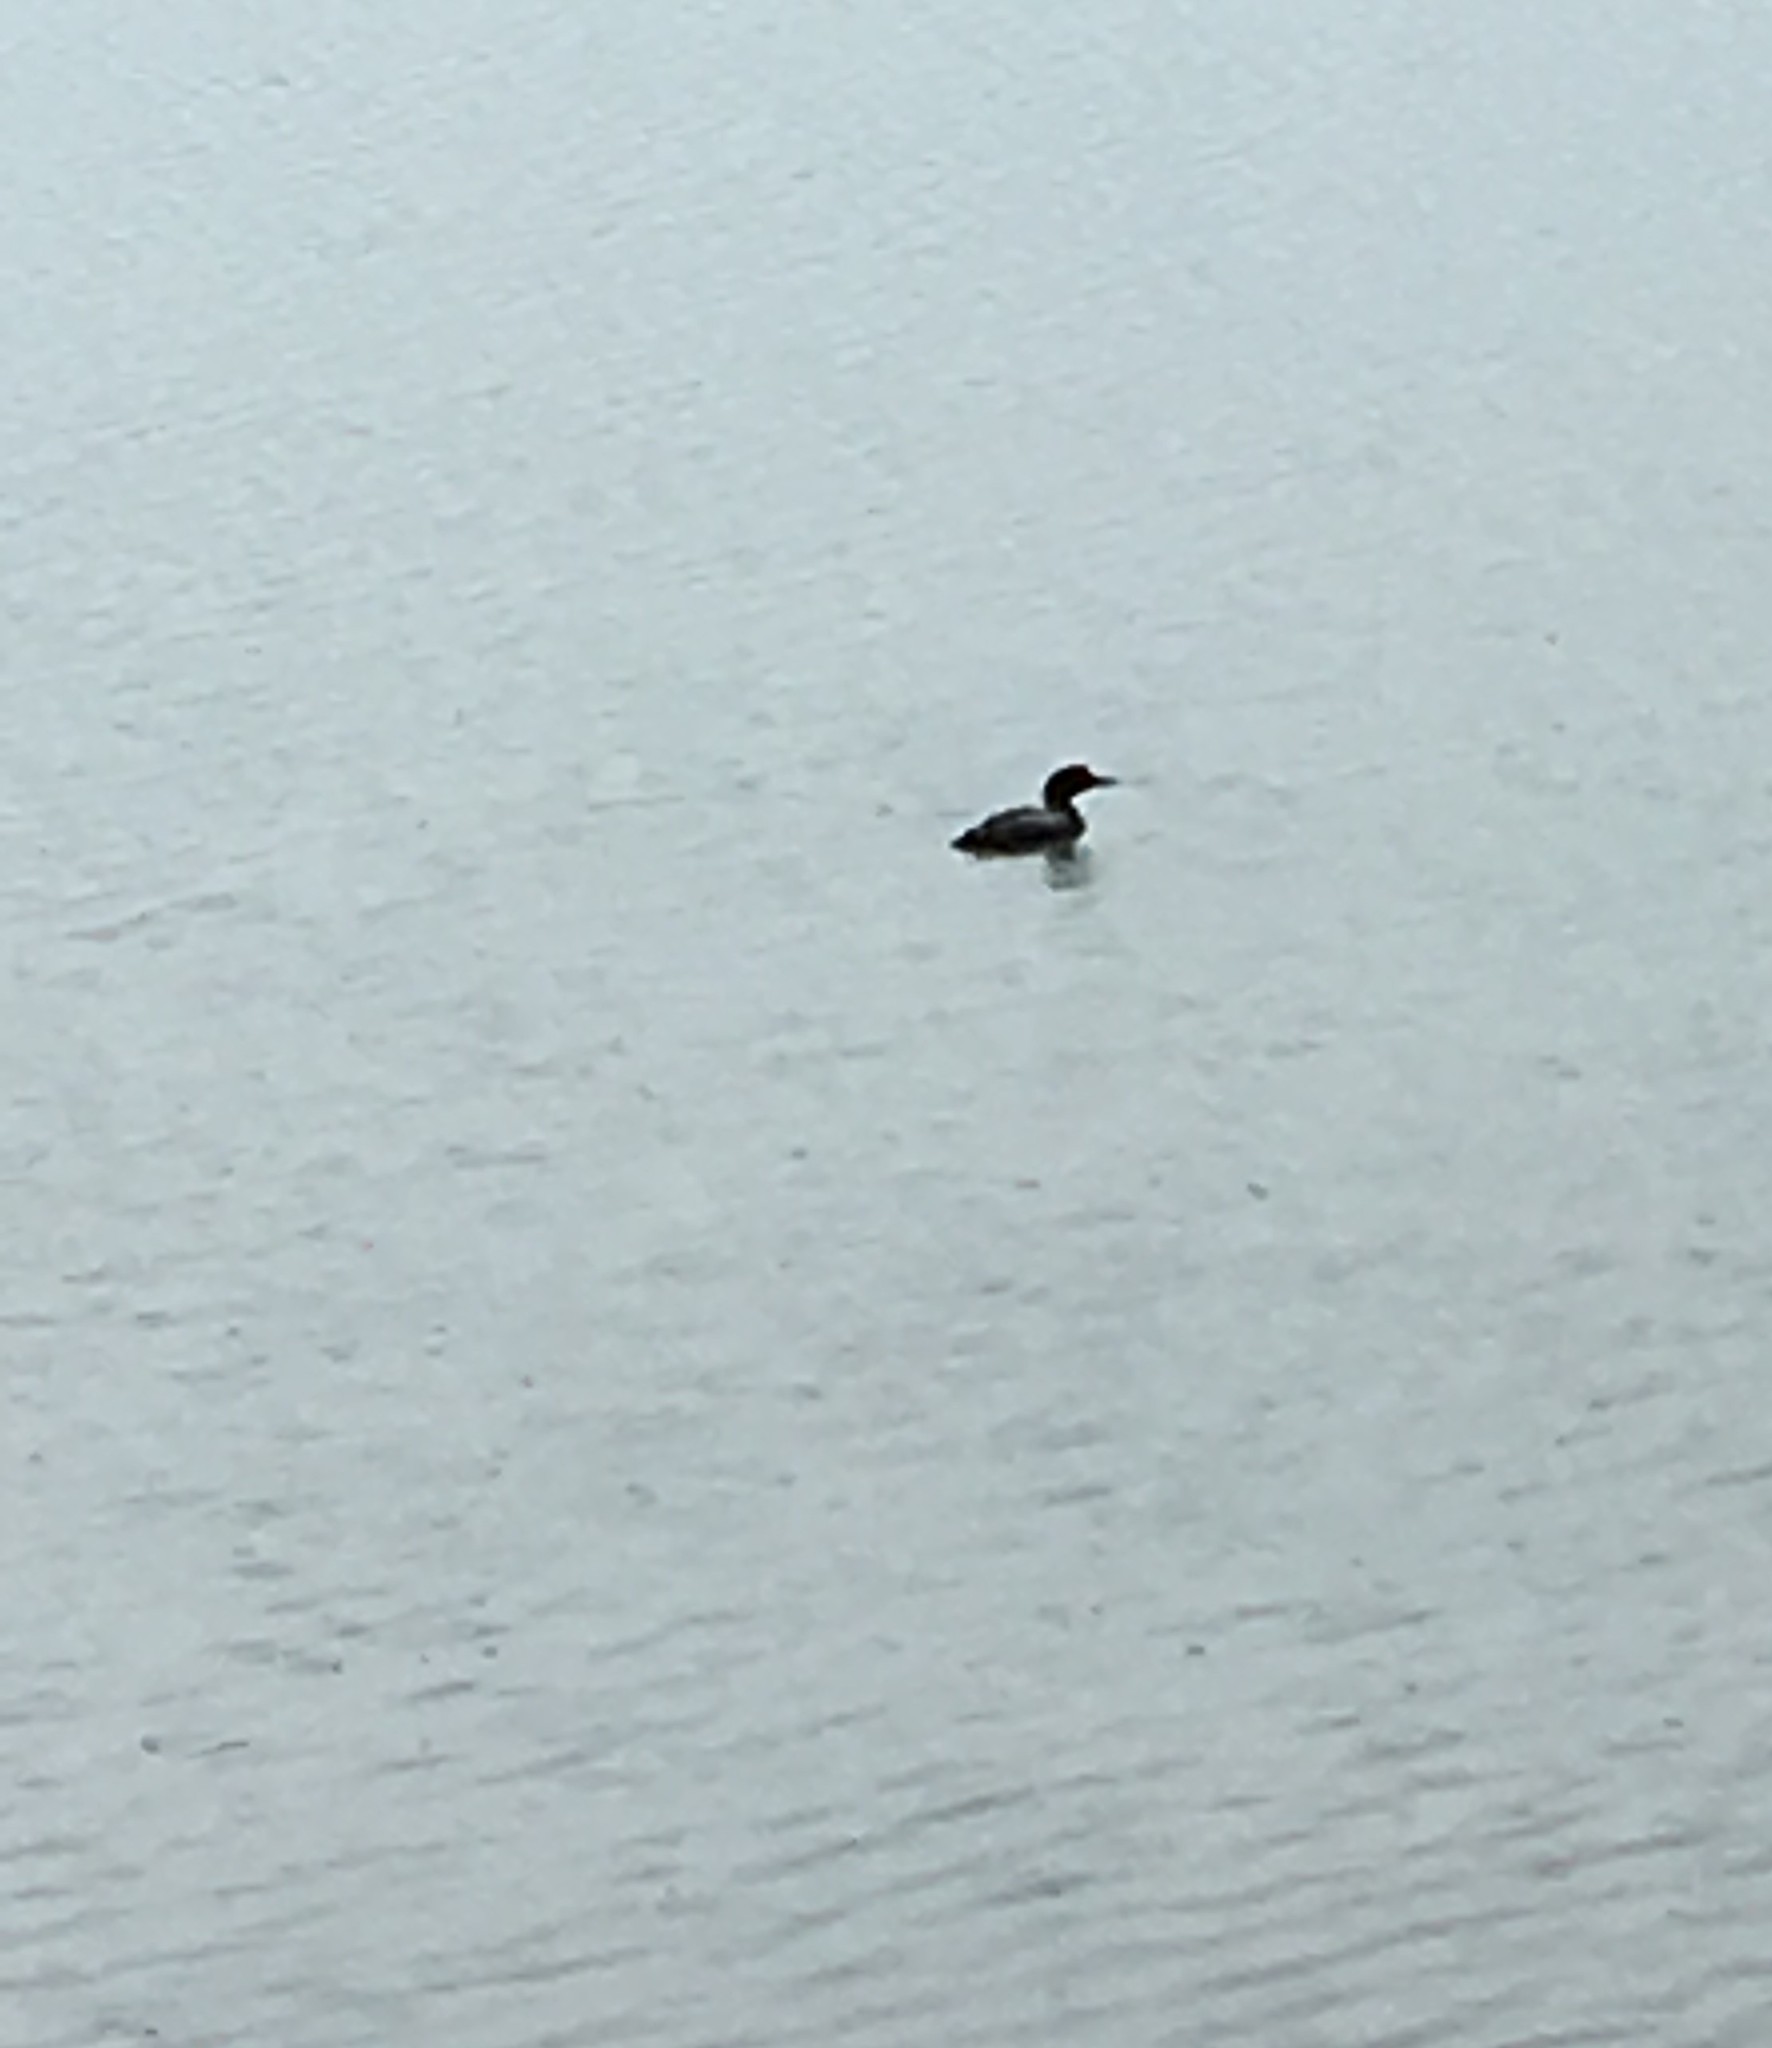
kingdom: Animalia
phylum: Chordata
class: Aves
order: Gaviiformes
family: Gaviidae
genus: Gavia
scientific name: Gavia immer
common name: Common loon
